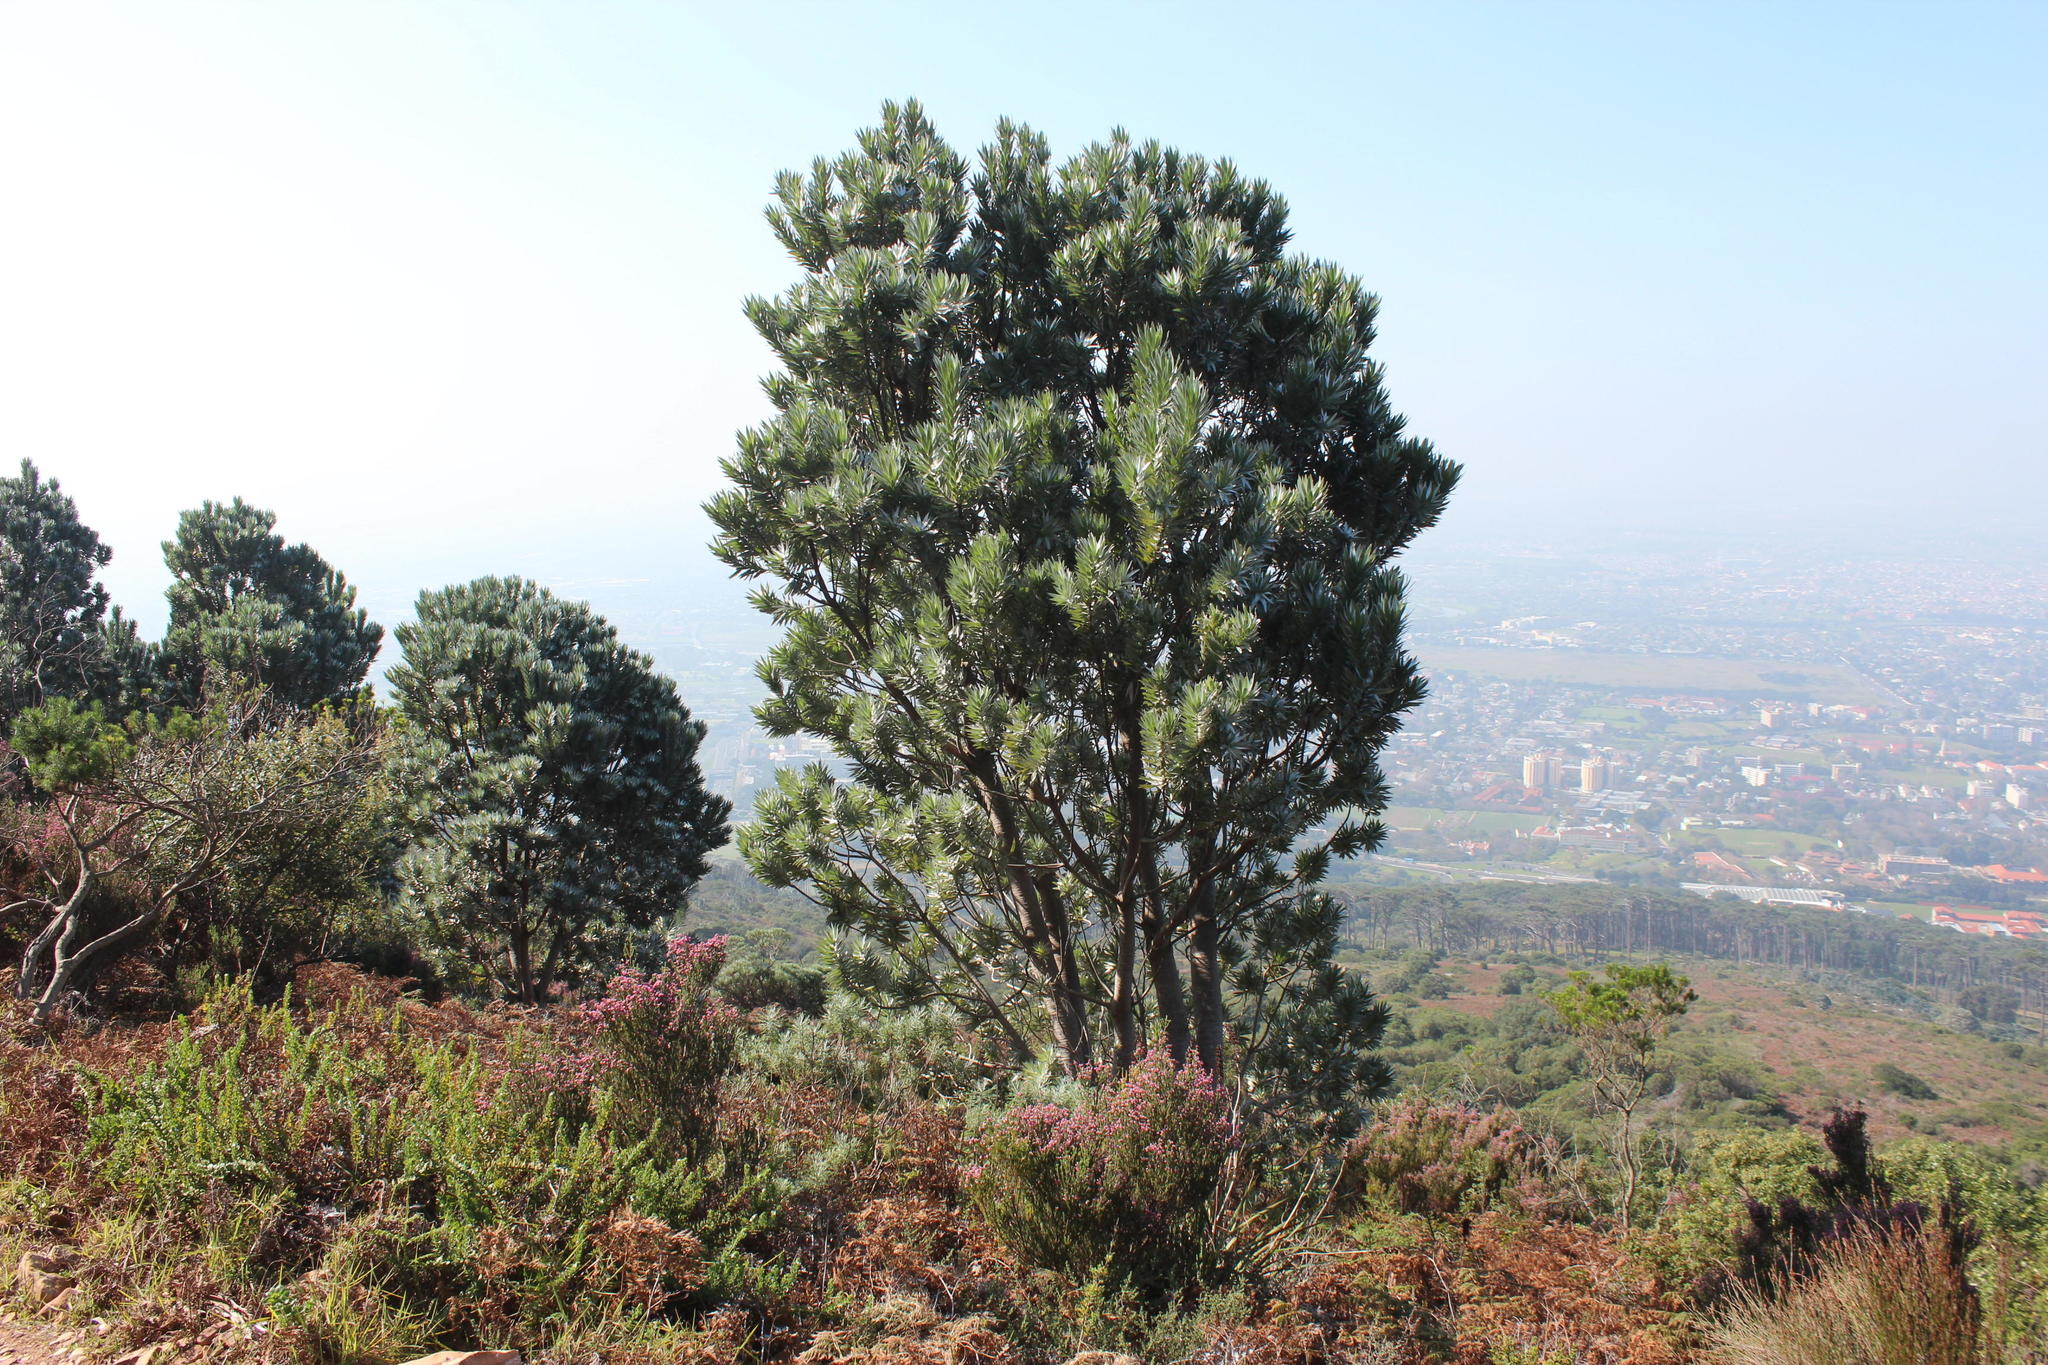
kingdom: Plantae
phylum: Tracheophyta
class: Magnoliopsida
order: Proteales
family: Proteaceae
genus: Leucadendron
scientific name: Leucadendron argenteum
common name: Cape silver tree
